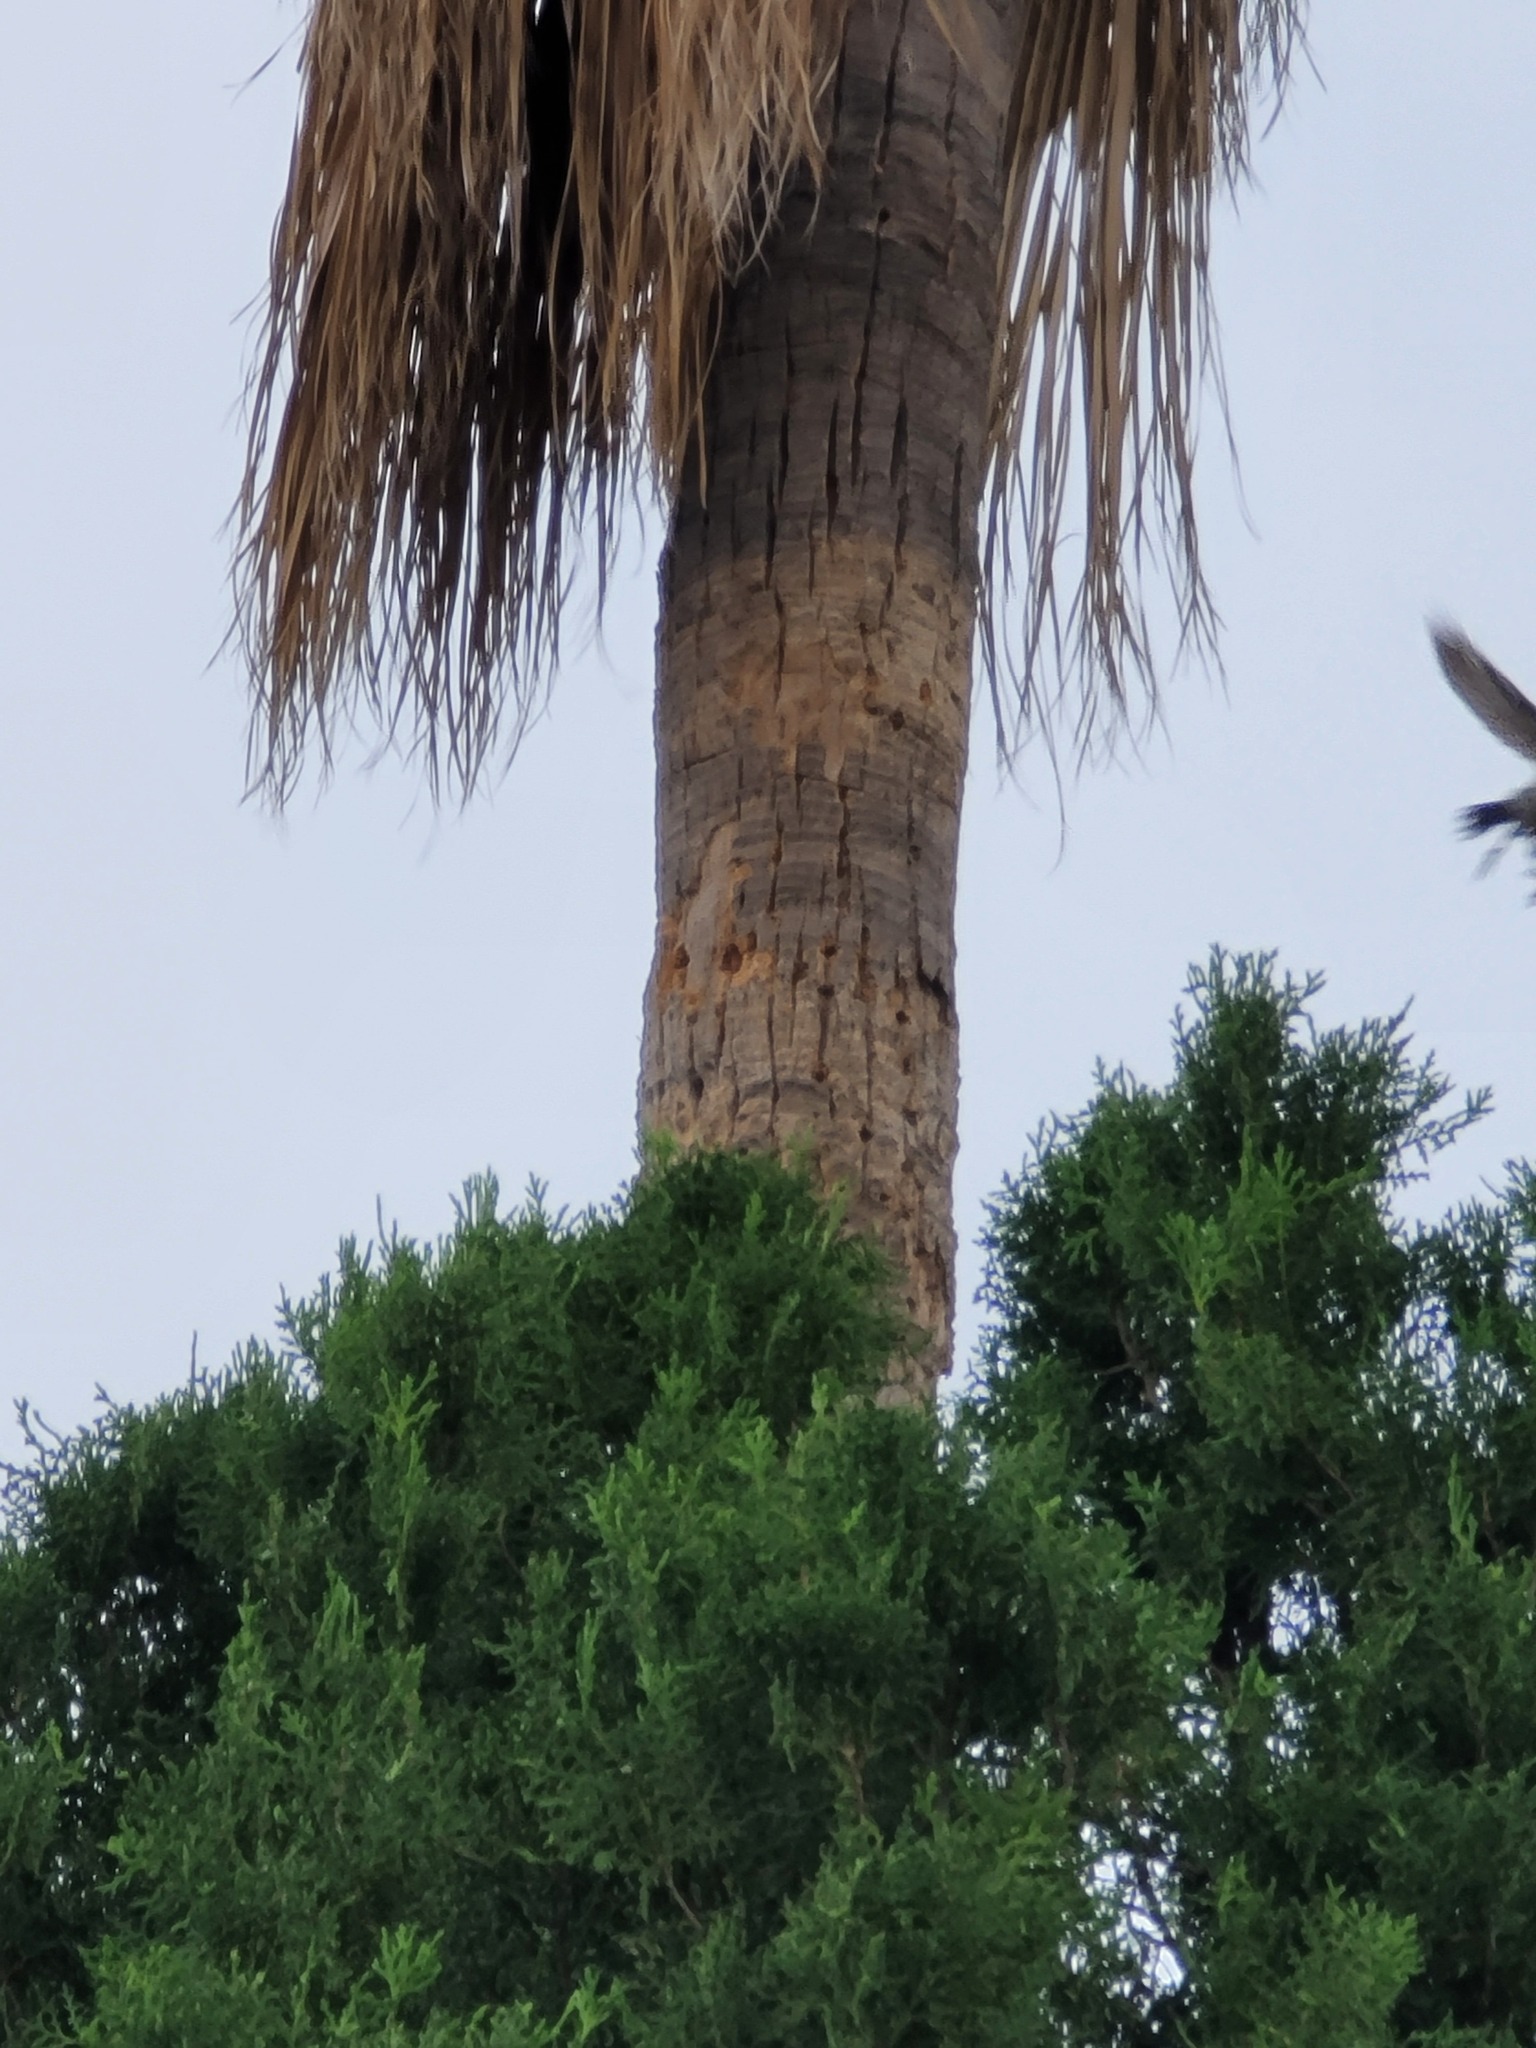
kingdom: Animalia
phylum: Chordata
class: Aves
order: Piciformes
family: Picidae
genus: Melanerpes
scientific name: Melanerpes aurifrons
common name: Golden-fronted woodpecker
